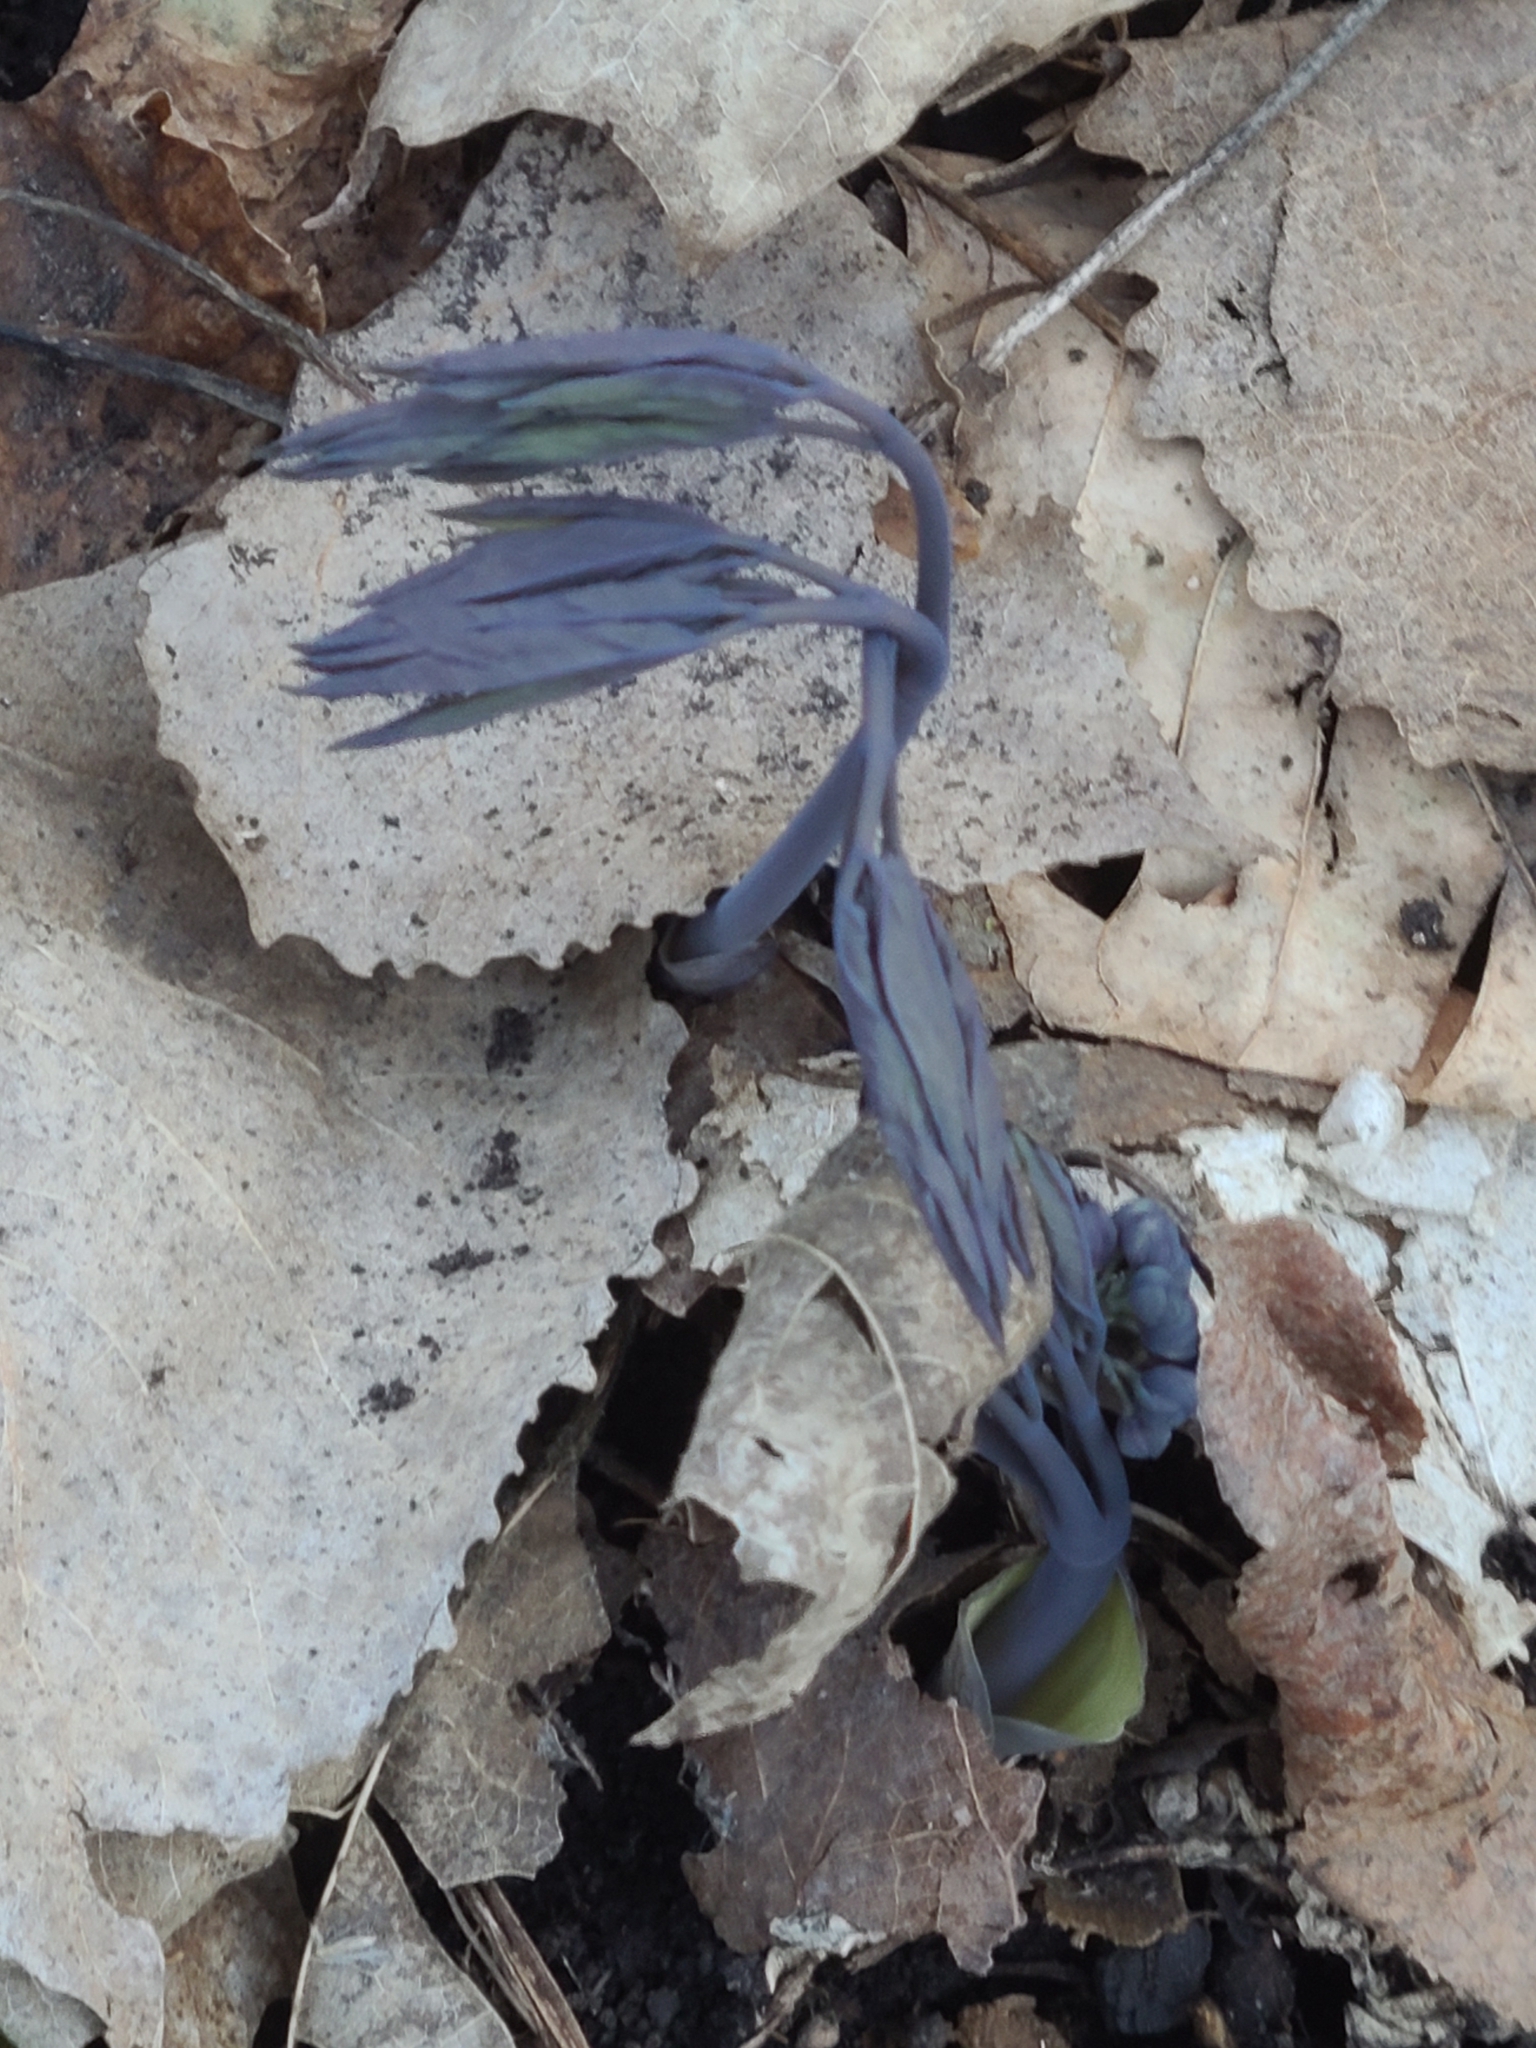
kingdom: Plantae
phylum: Tracheophyta
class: Magnoliopsida
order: Ranunculales
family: Berberidaceae
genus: Caulophyllum
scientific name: Caulophyllum giganteum
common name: Blue cohosh
